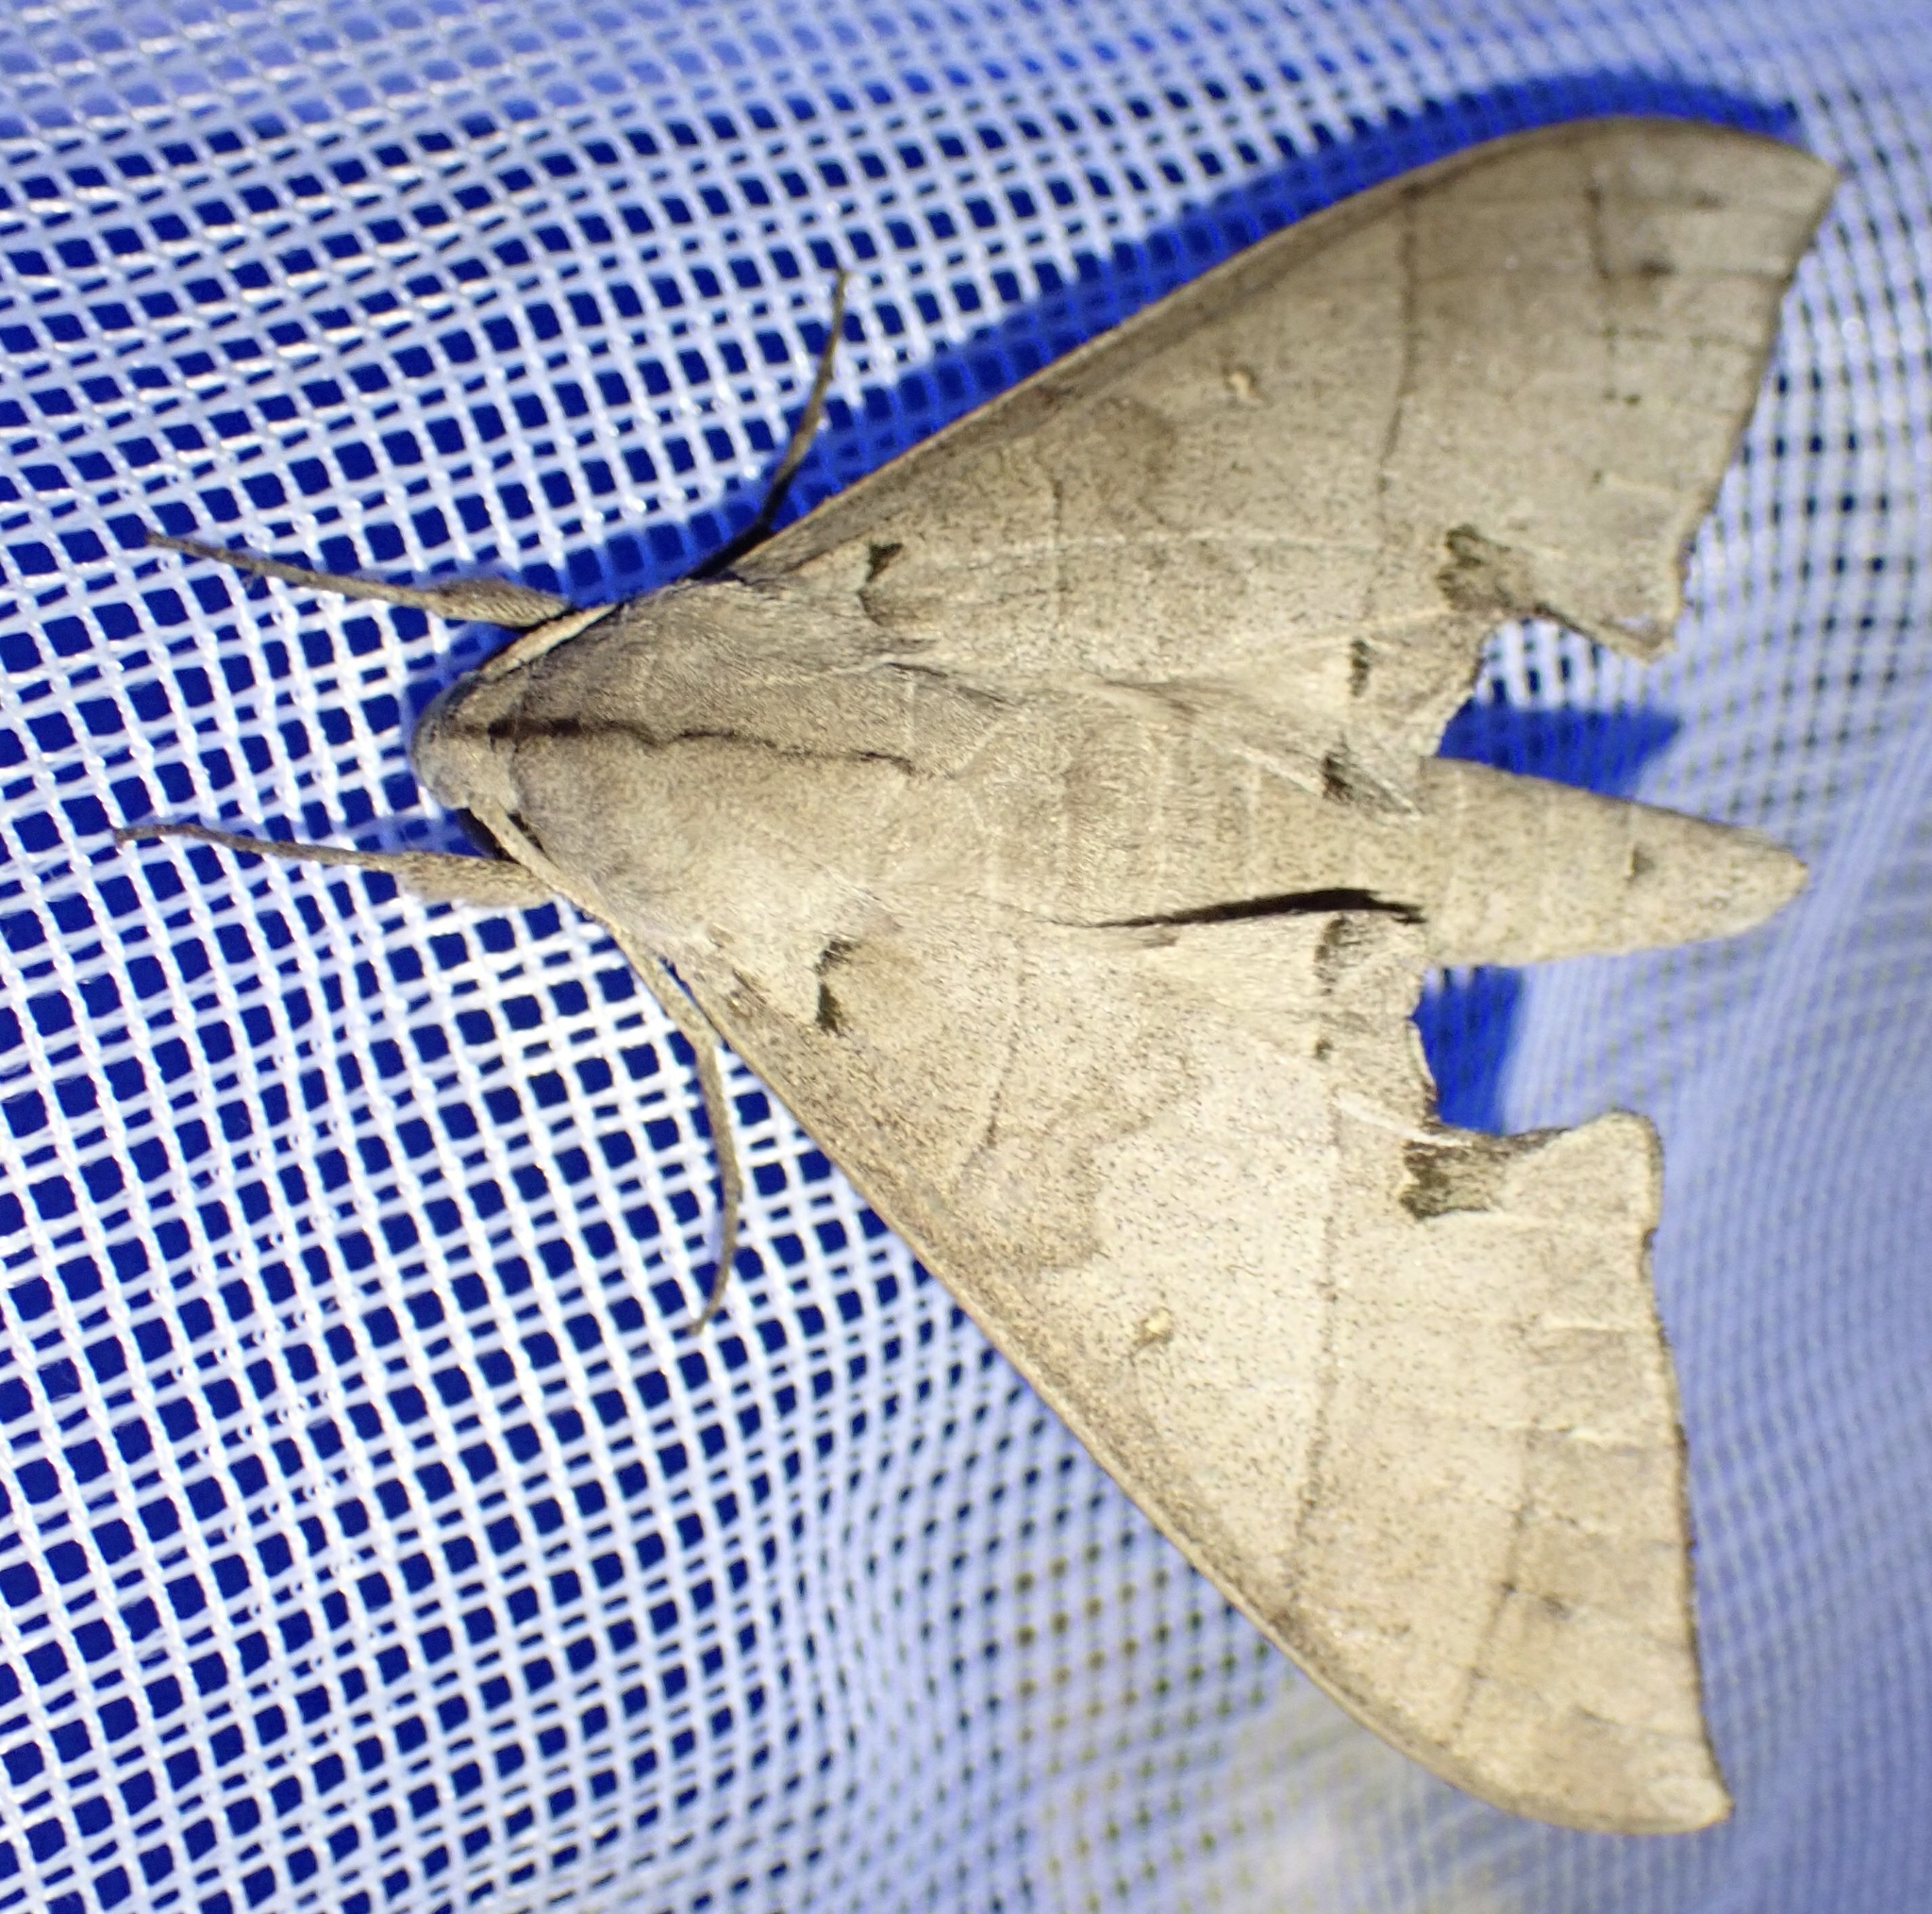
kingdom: Animalia
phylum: Arthropoda
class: Insecta
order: Lepidoptera
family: Sphingidae
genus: Polyptychus
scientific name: Polyptychus carteri
